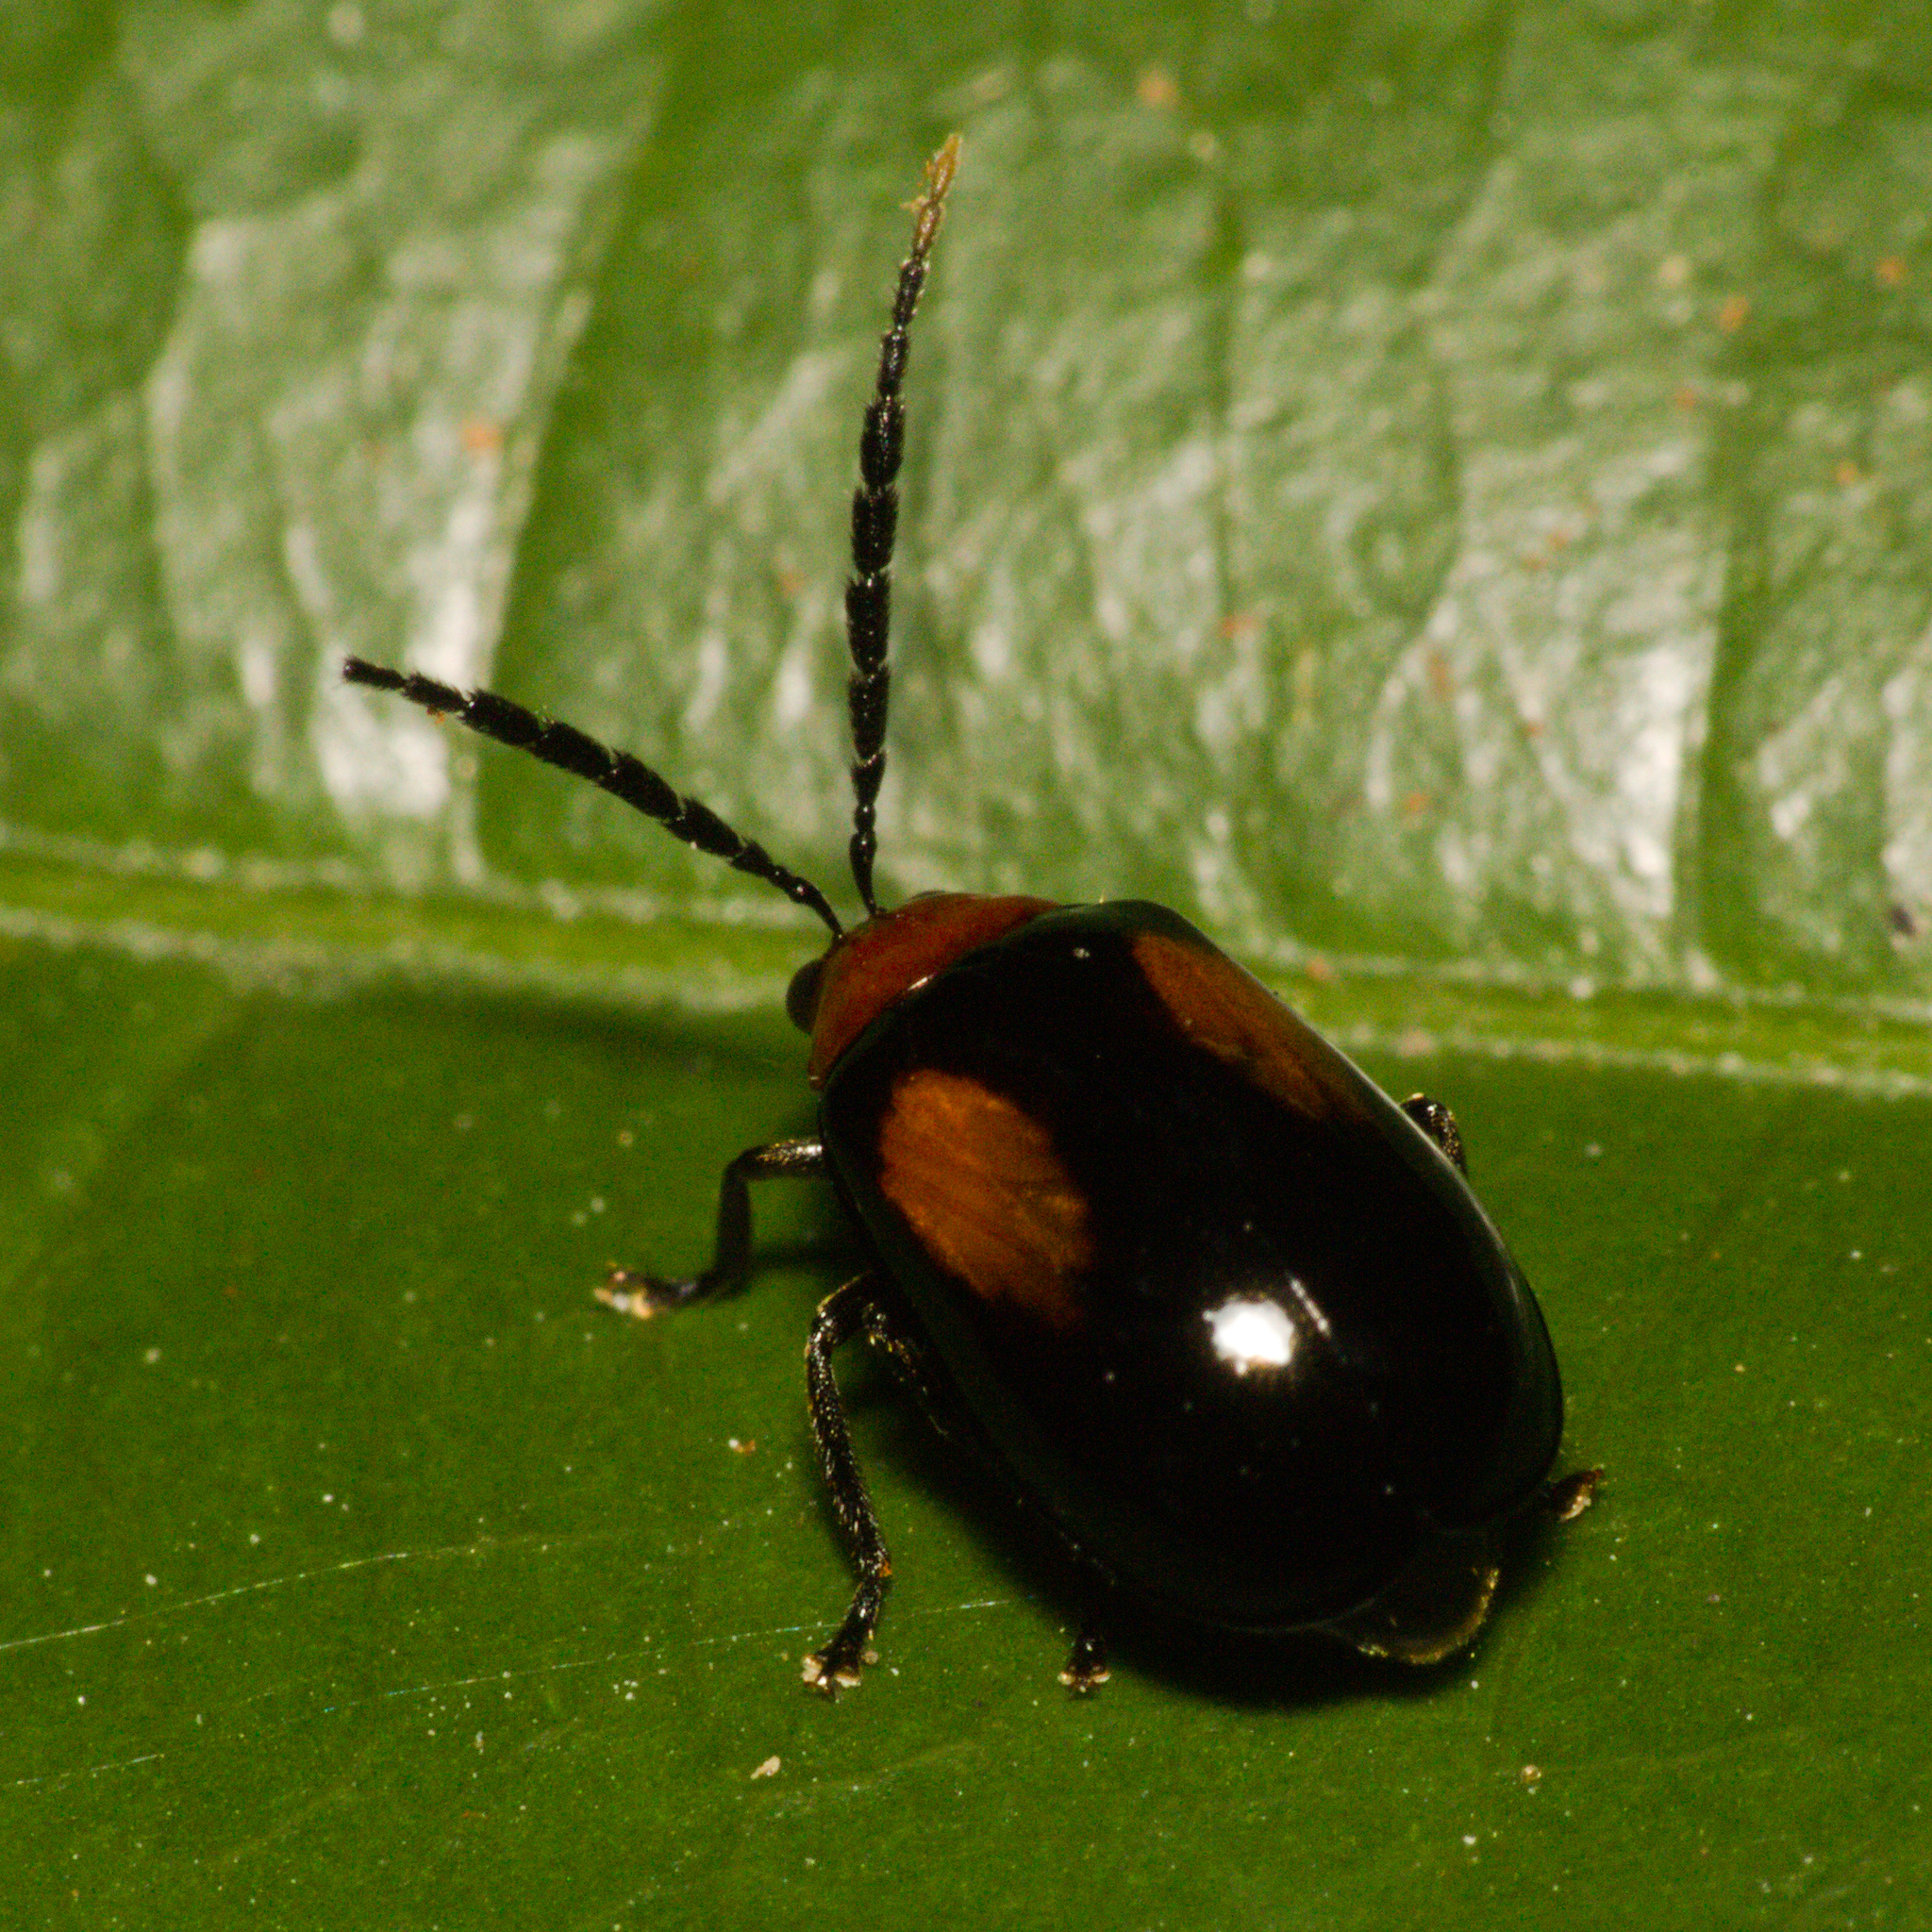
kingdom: Animalia
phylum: Arthropoda
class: Insecta
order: Coleoptera
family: Chrysomelidae
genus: Arcastes
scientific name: Arcastes biplagiata
